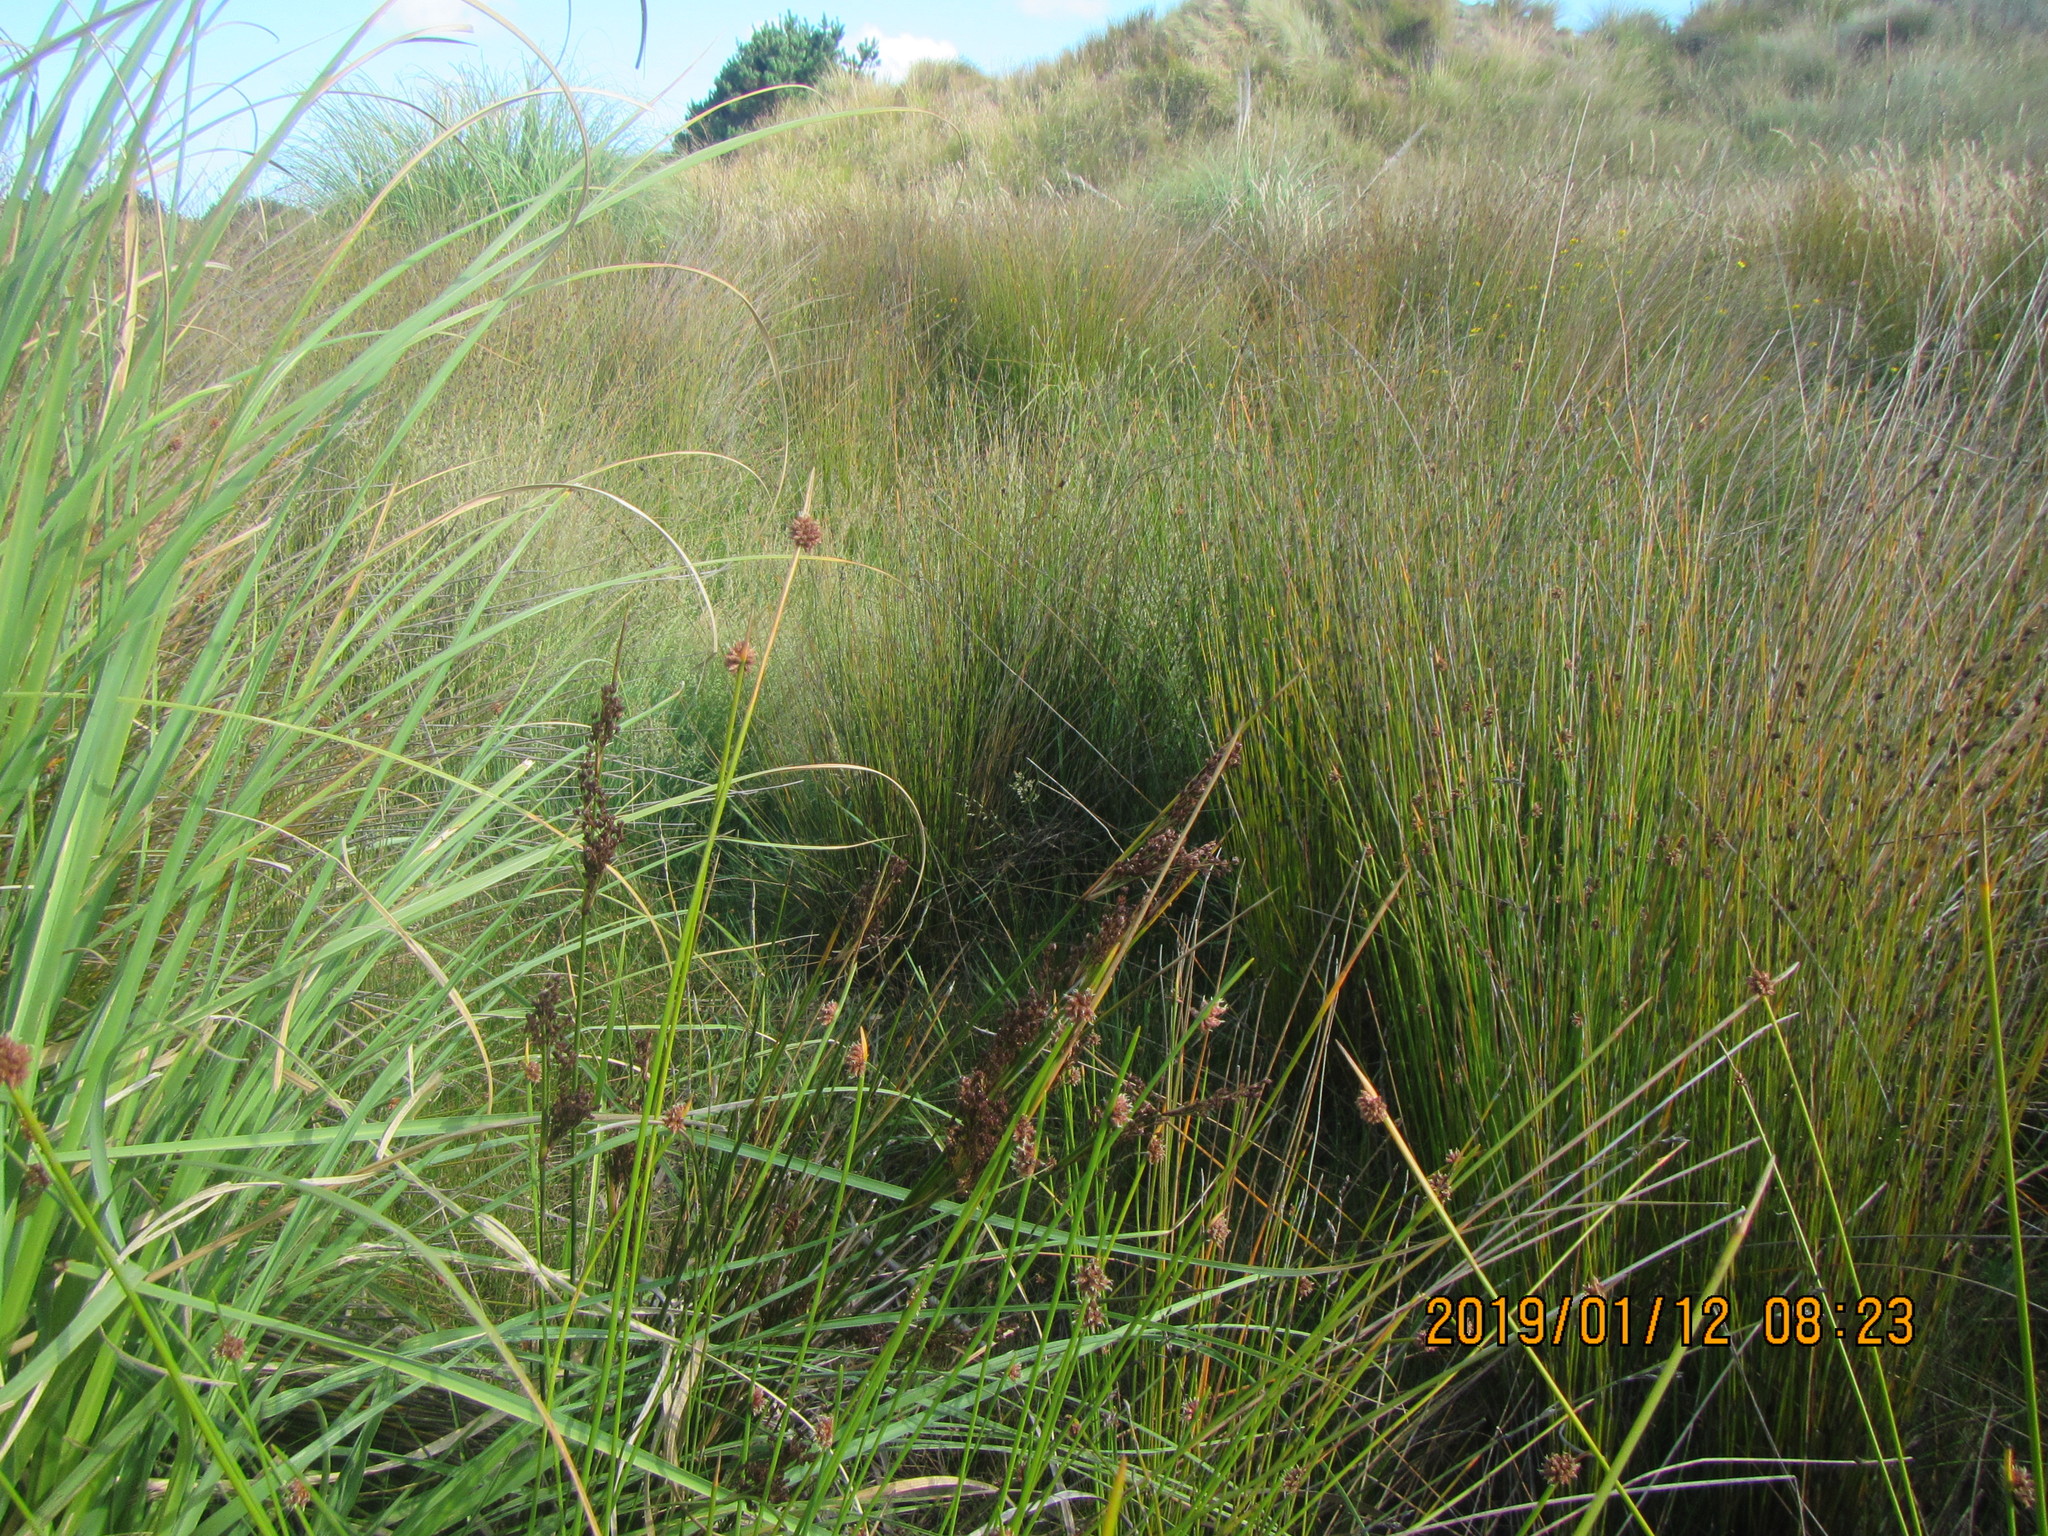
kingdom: Plantae
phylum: Tracheophyta
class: Liliopsida
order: Poales
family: Juncaceae
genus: Juncus
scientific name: Juncus kraussii
